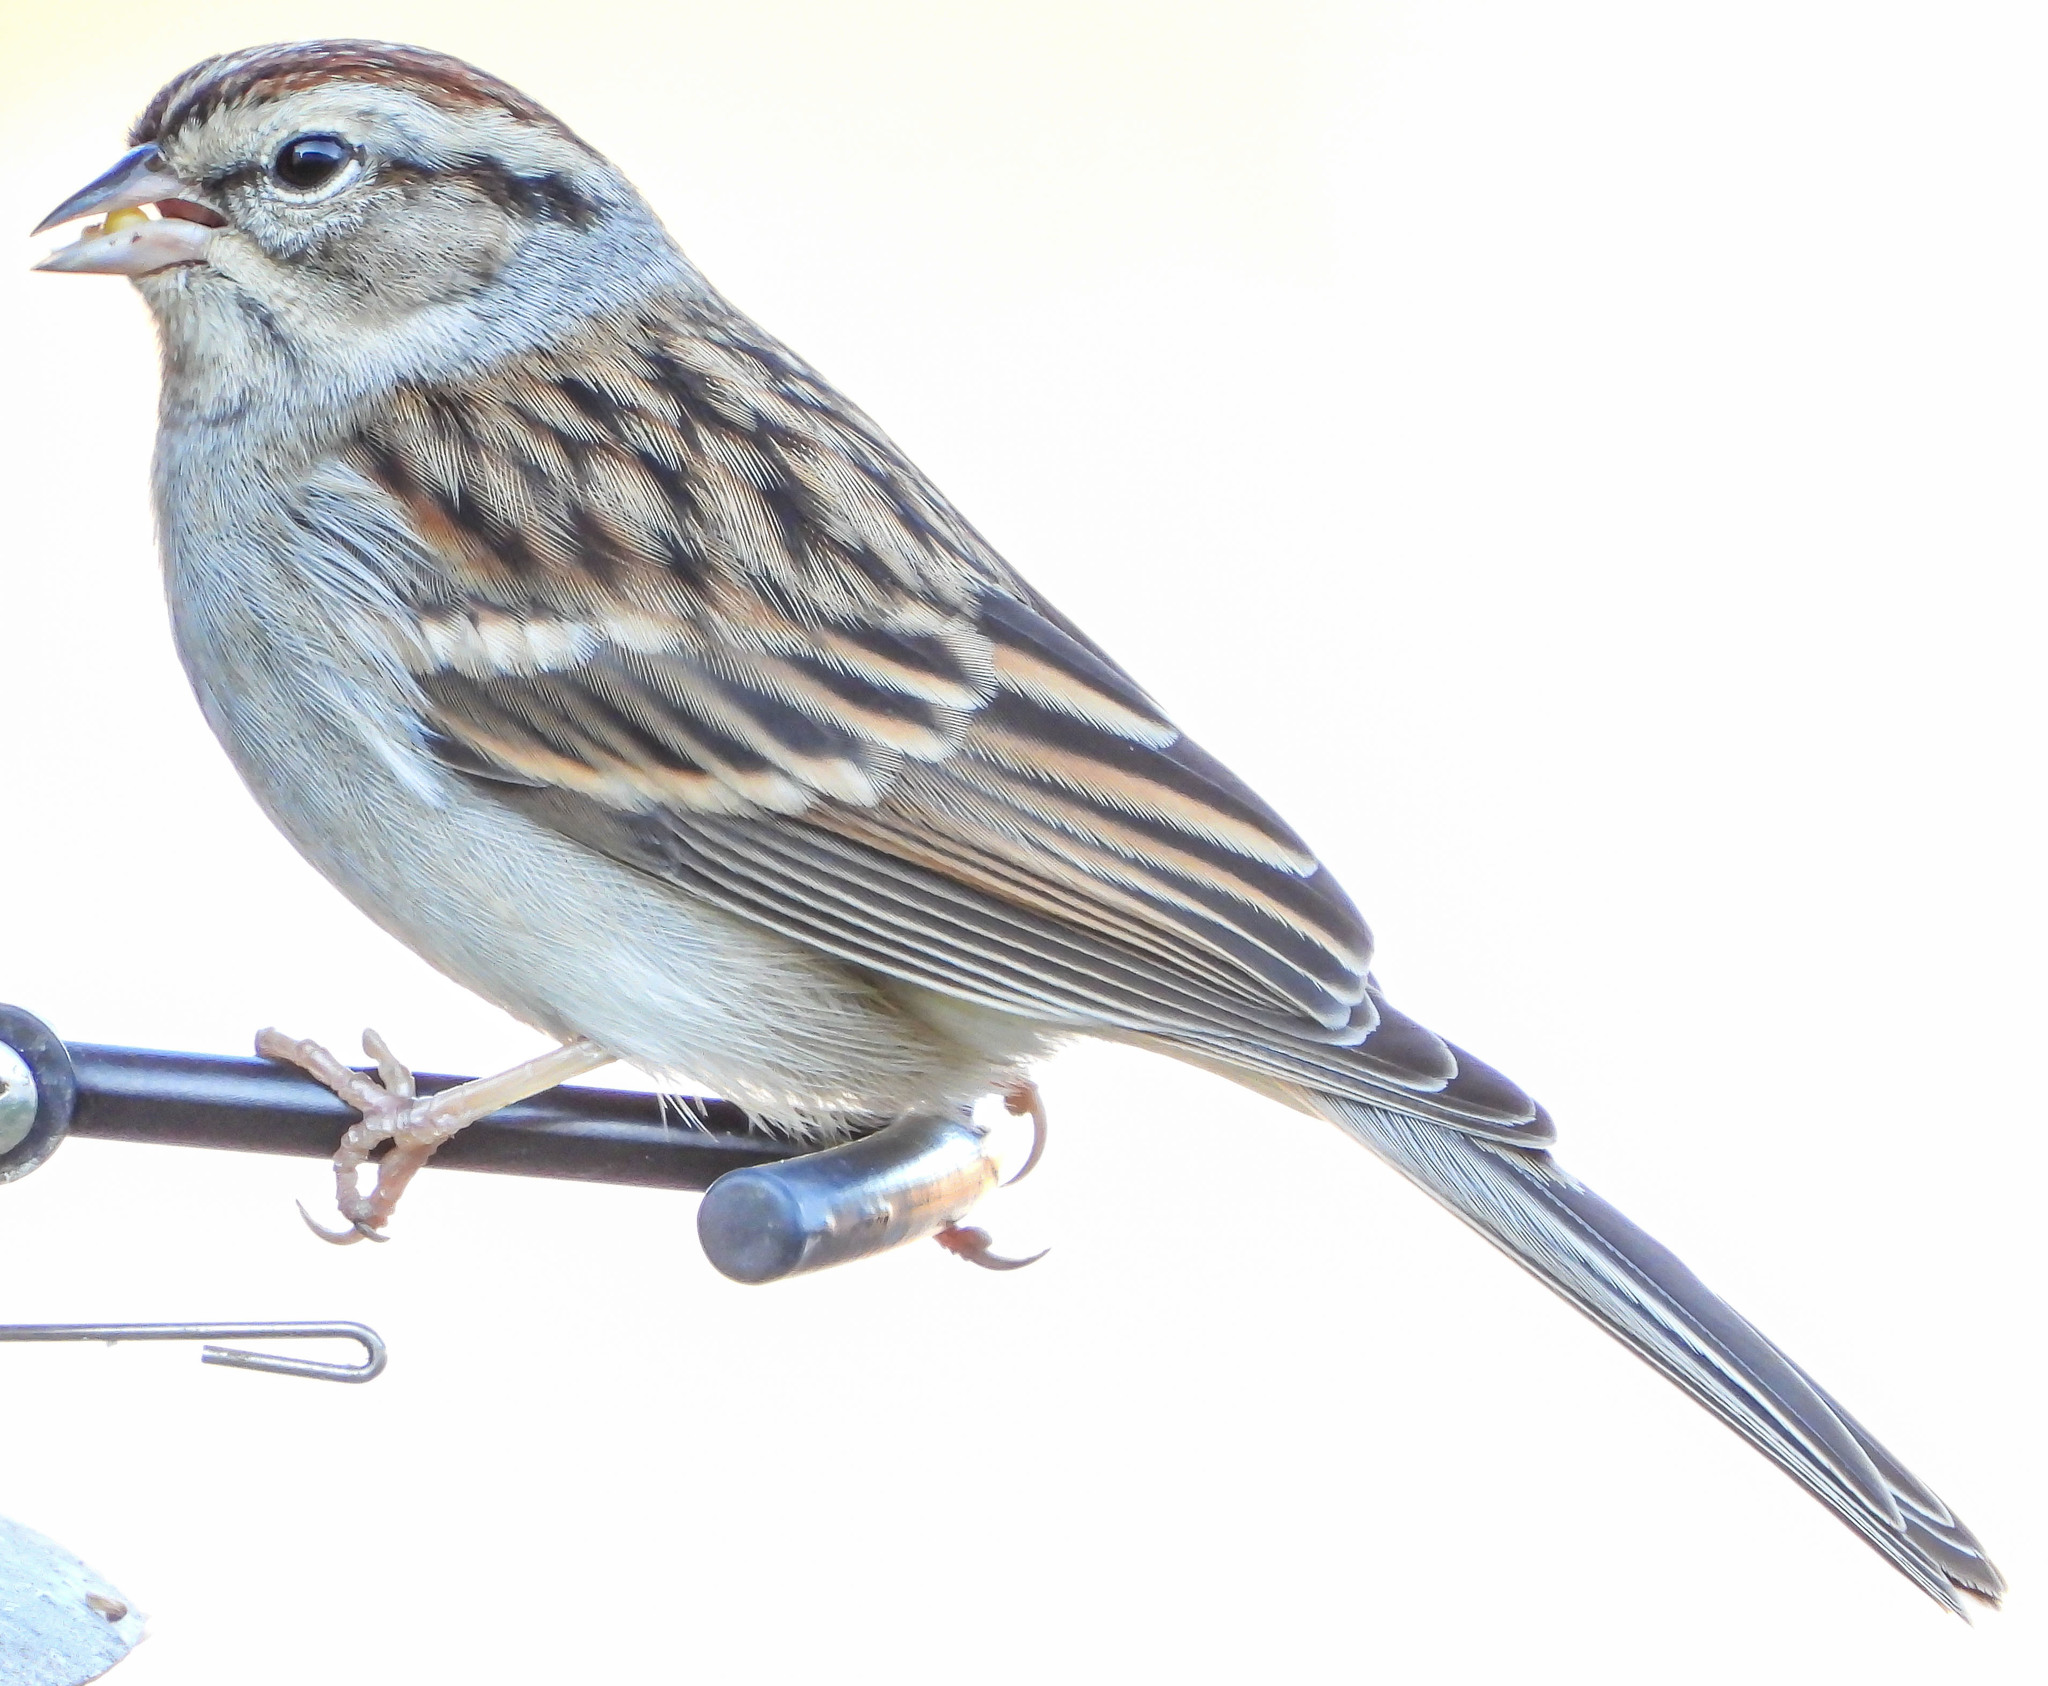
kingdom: Animalia
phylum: Chordata
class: Aves
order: Passeriformes
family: Passerellidae
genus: Spizella
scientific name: Spizella passerina
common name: Chipping sparrow
